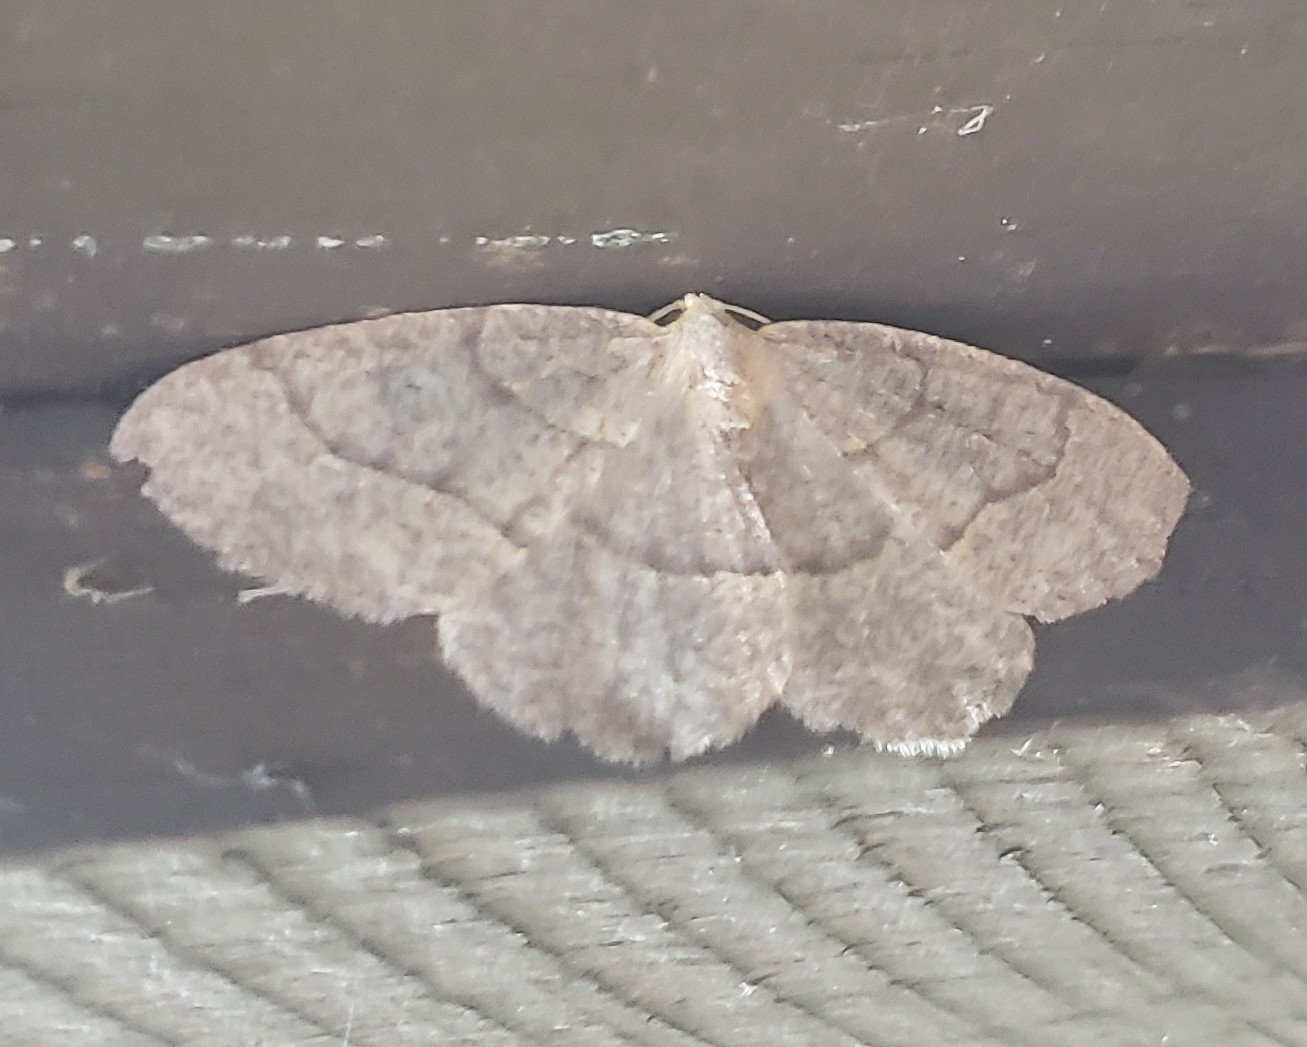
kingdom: Animalia
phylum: Arthropoda
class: Insecta
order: Lepidoptera
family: Geometridae
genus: Lambdina
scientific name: Lambdina fervidaria
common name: Curve-lined looper moth
